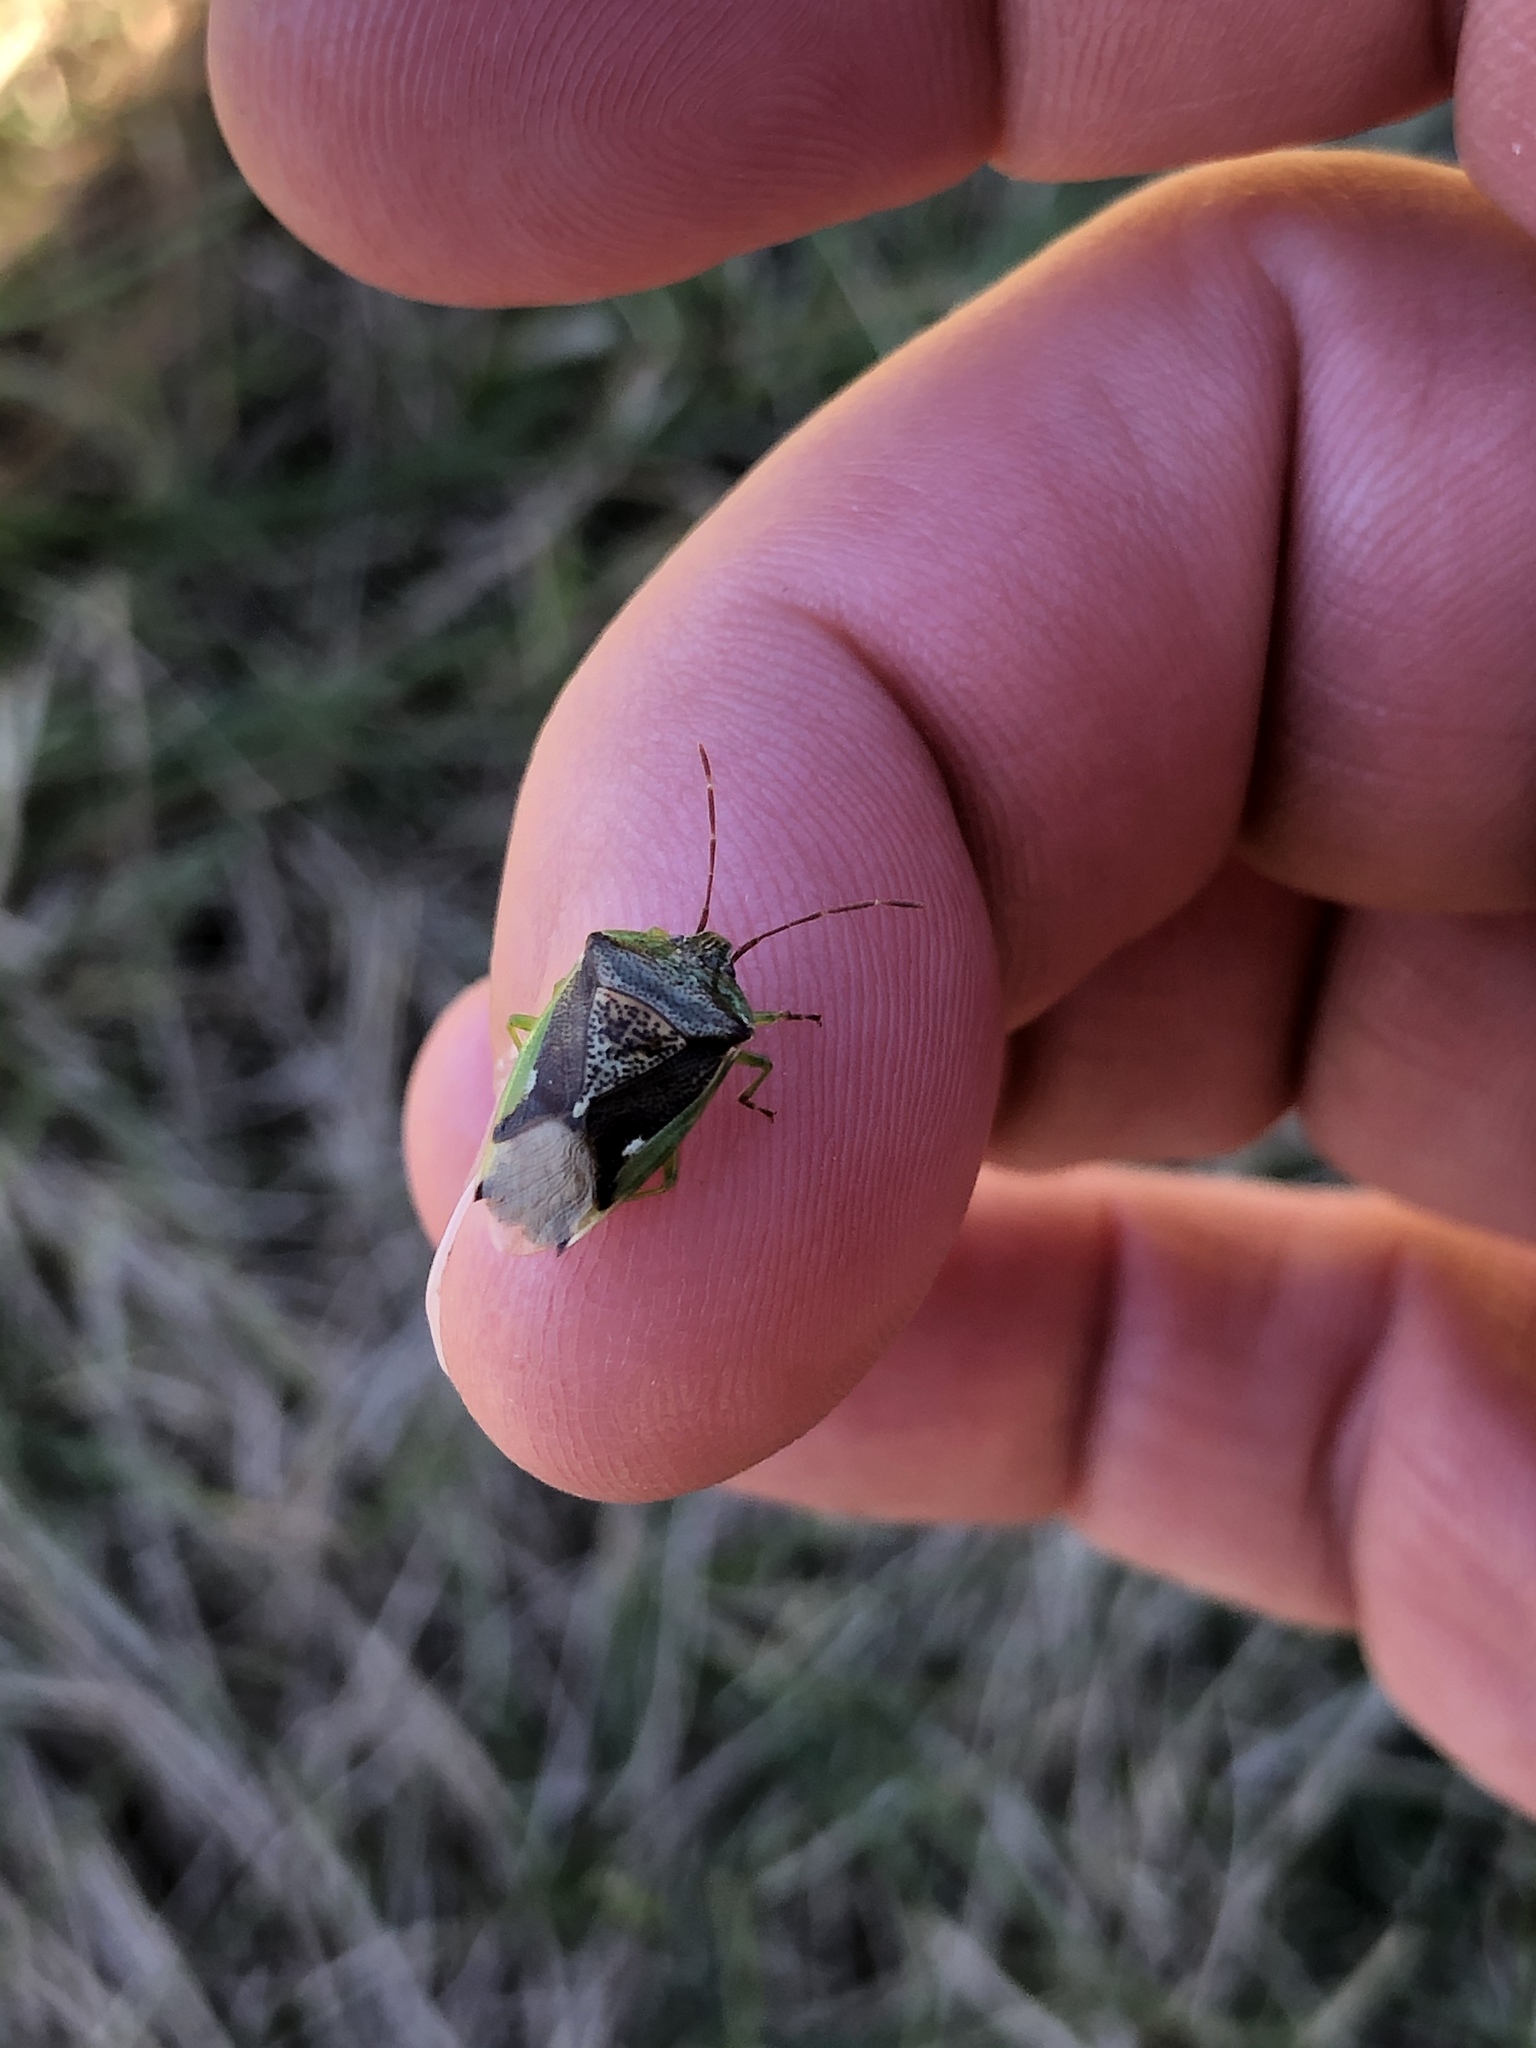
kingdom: Animalia
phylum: Arthropoda
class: Insecta
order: Hemiptera
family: Acanthosomatidae
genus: Oncacontias
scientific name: Oncacontias vittatus
